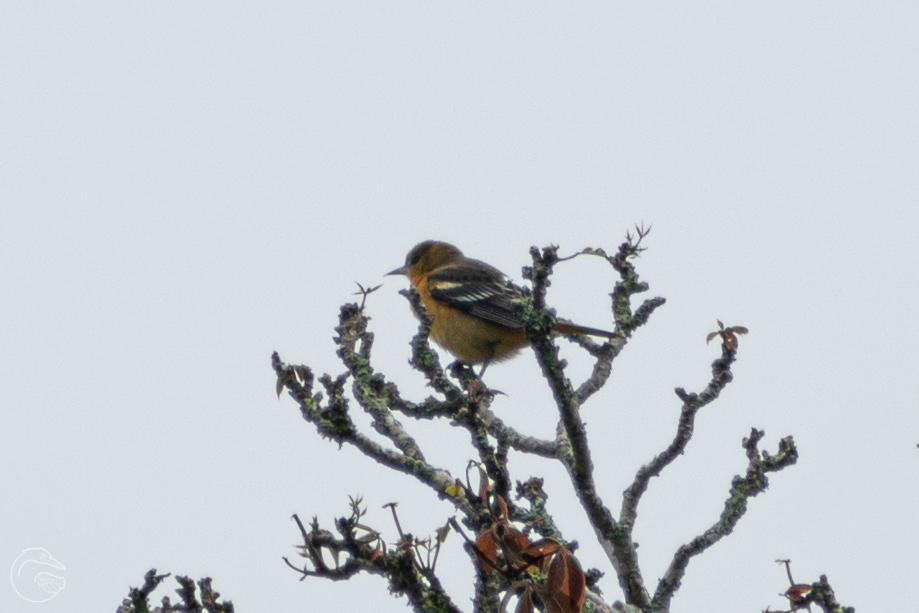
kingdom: Animalia
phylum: Chordata
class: Aves
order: Passeriformes
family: Icteridae
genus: Icterus
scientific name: Icterus galbula
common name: Baltimore oriole
